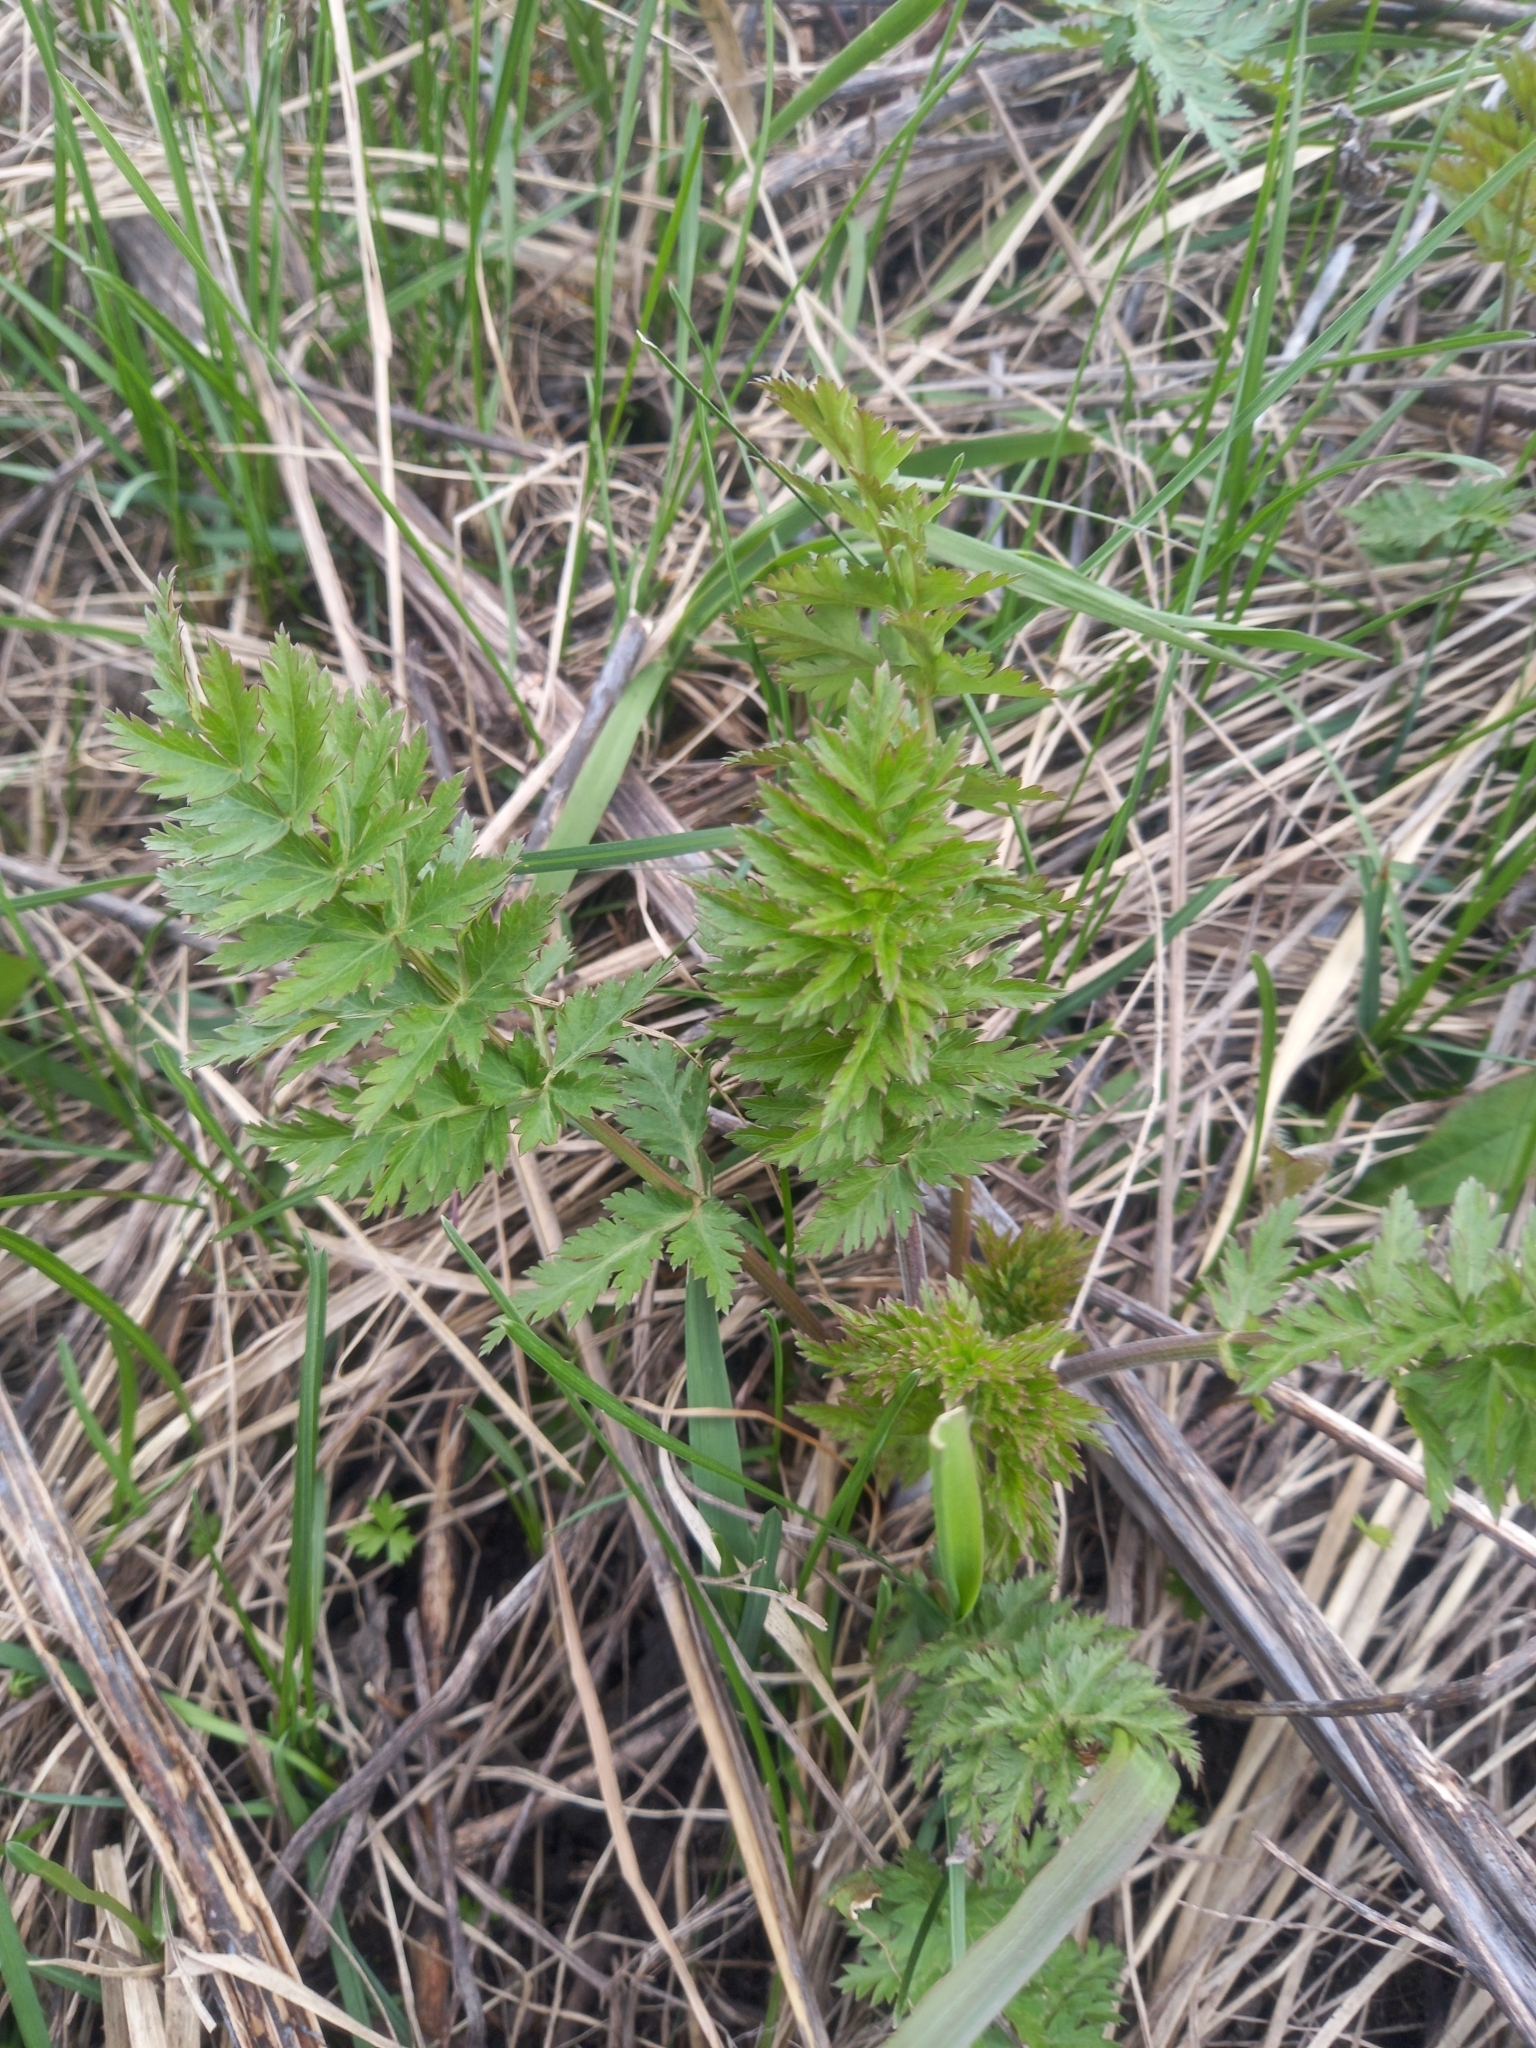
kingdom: Plantae
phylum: Tracheophyta
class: Magnoliopsida
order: Apiales
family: Apiaceae
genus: Seseli
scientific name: Seseli libanotis
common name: Mooncarrot
